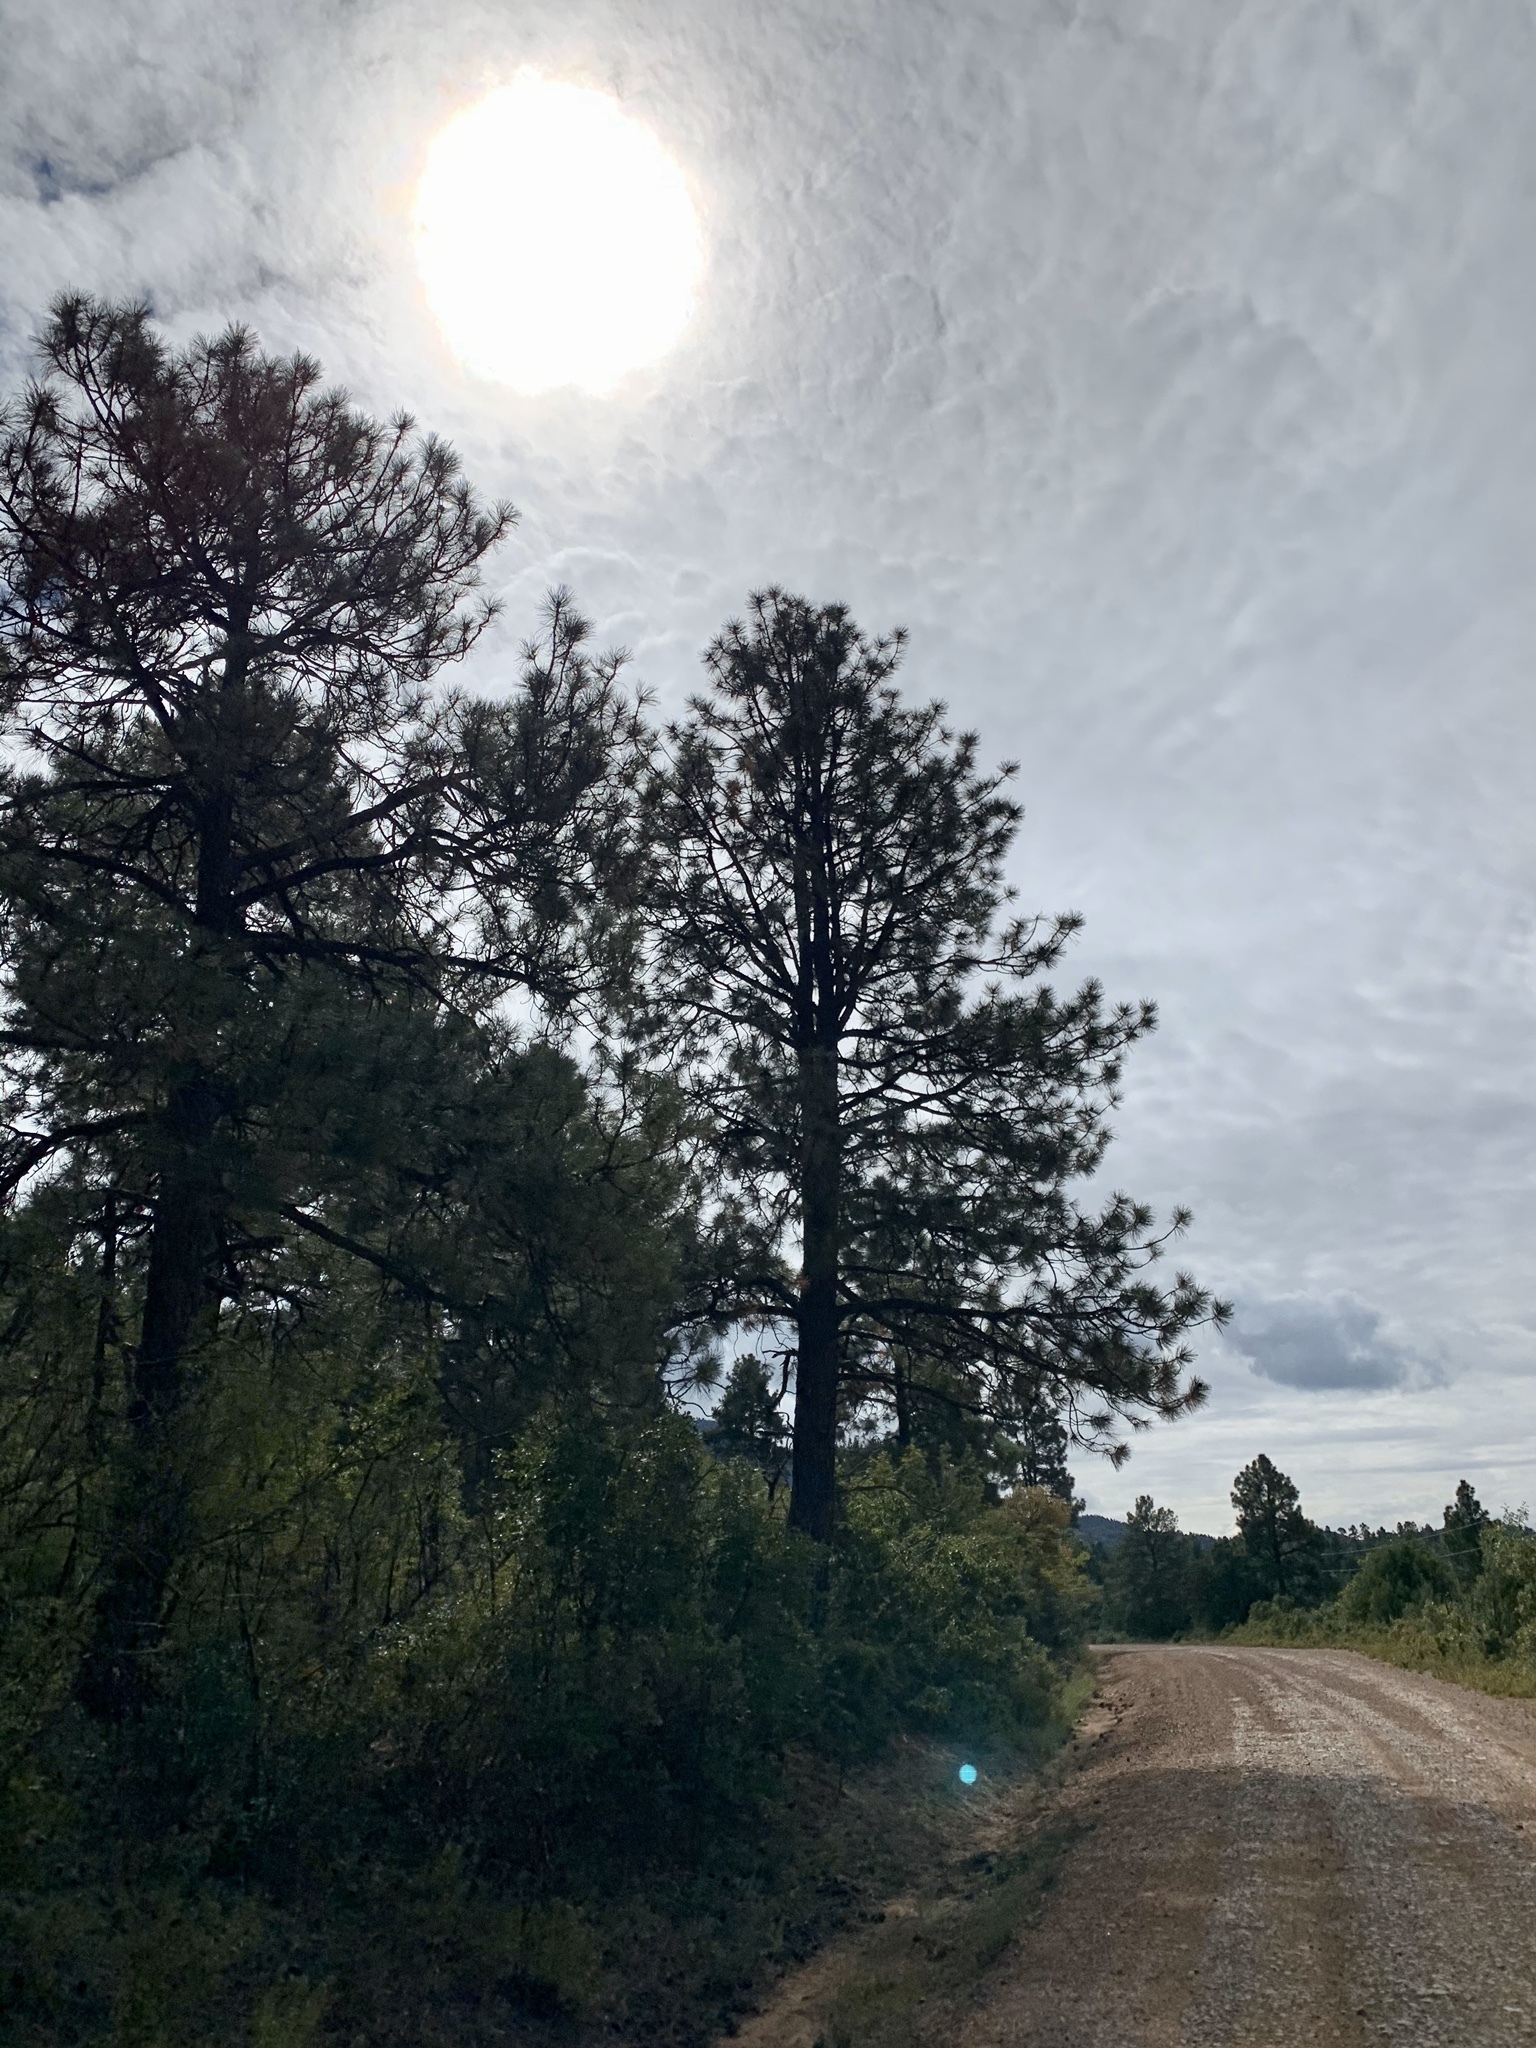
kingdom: Plantae
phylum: Tracheophyta
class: Pinopsida
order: Pinales
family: Pinaceae
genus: Pinus
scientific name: Pinus ponderosa
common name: Western yellow-pine
